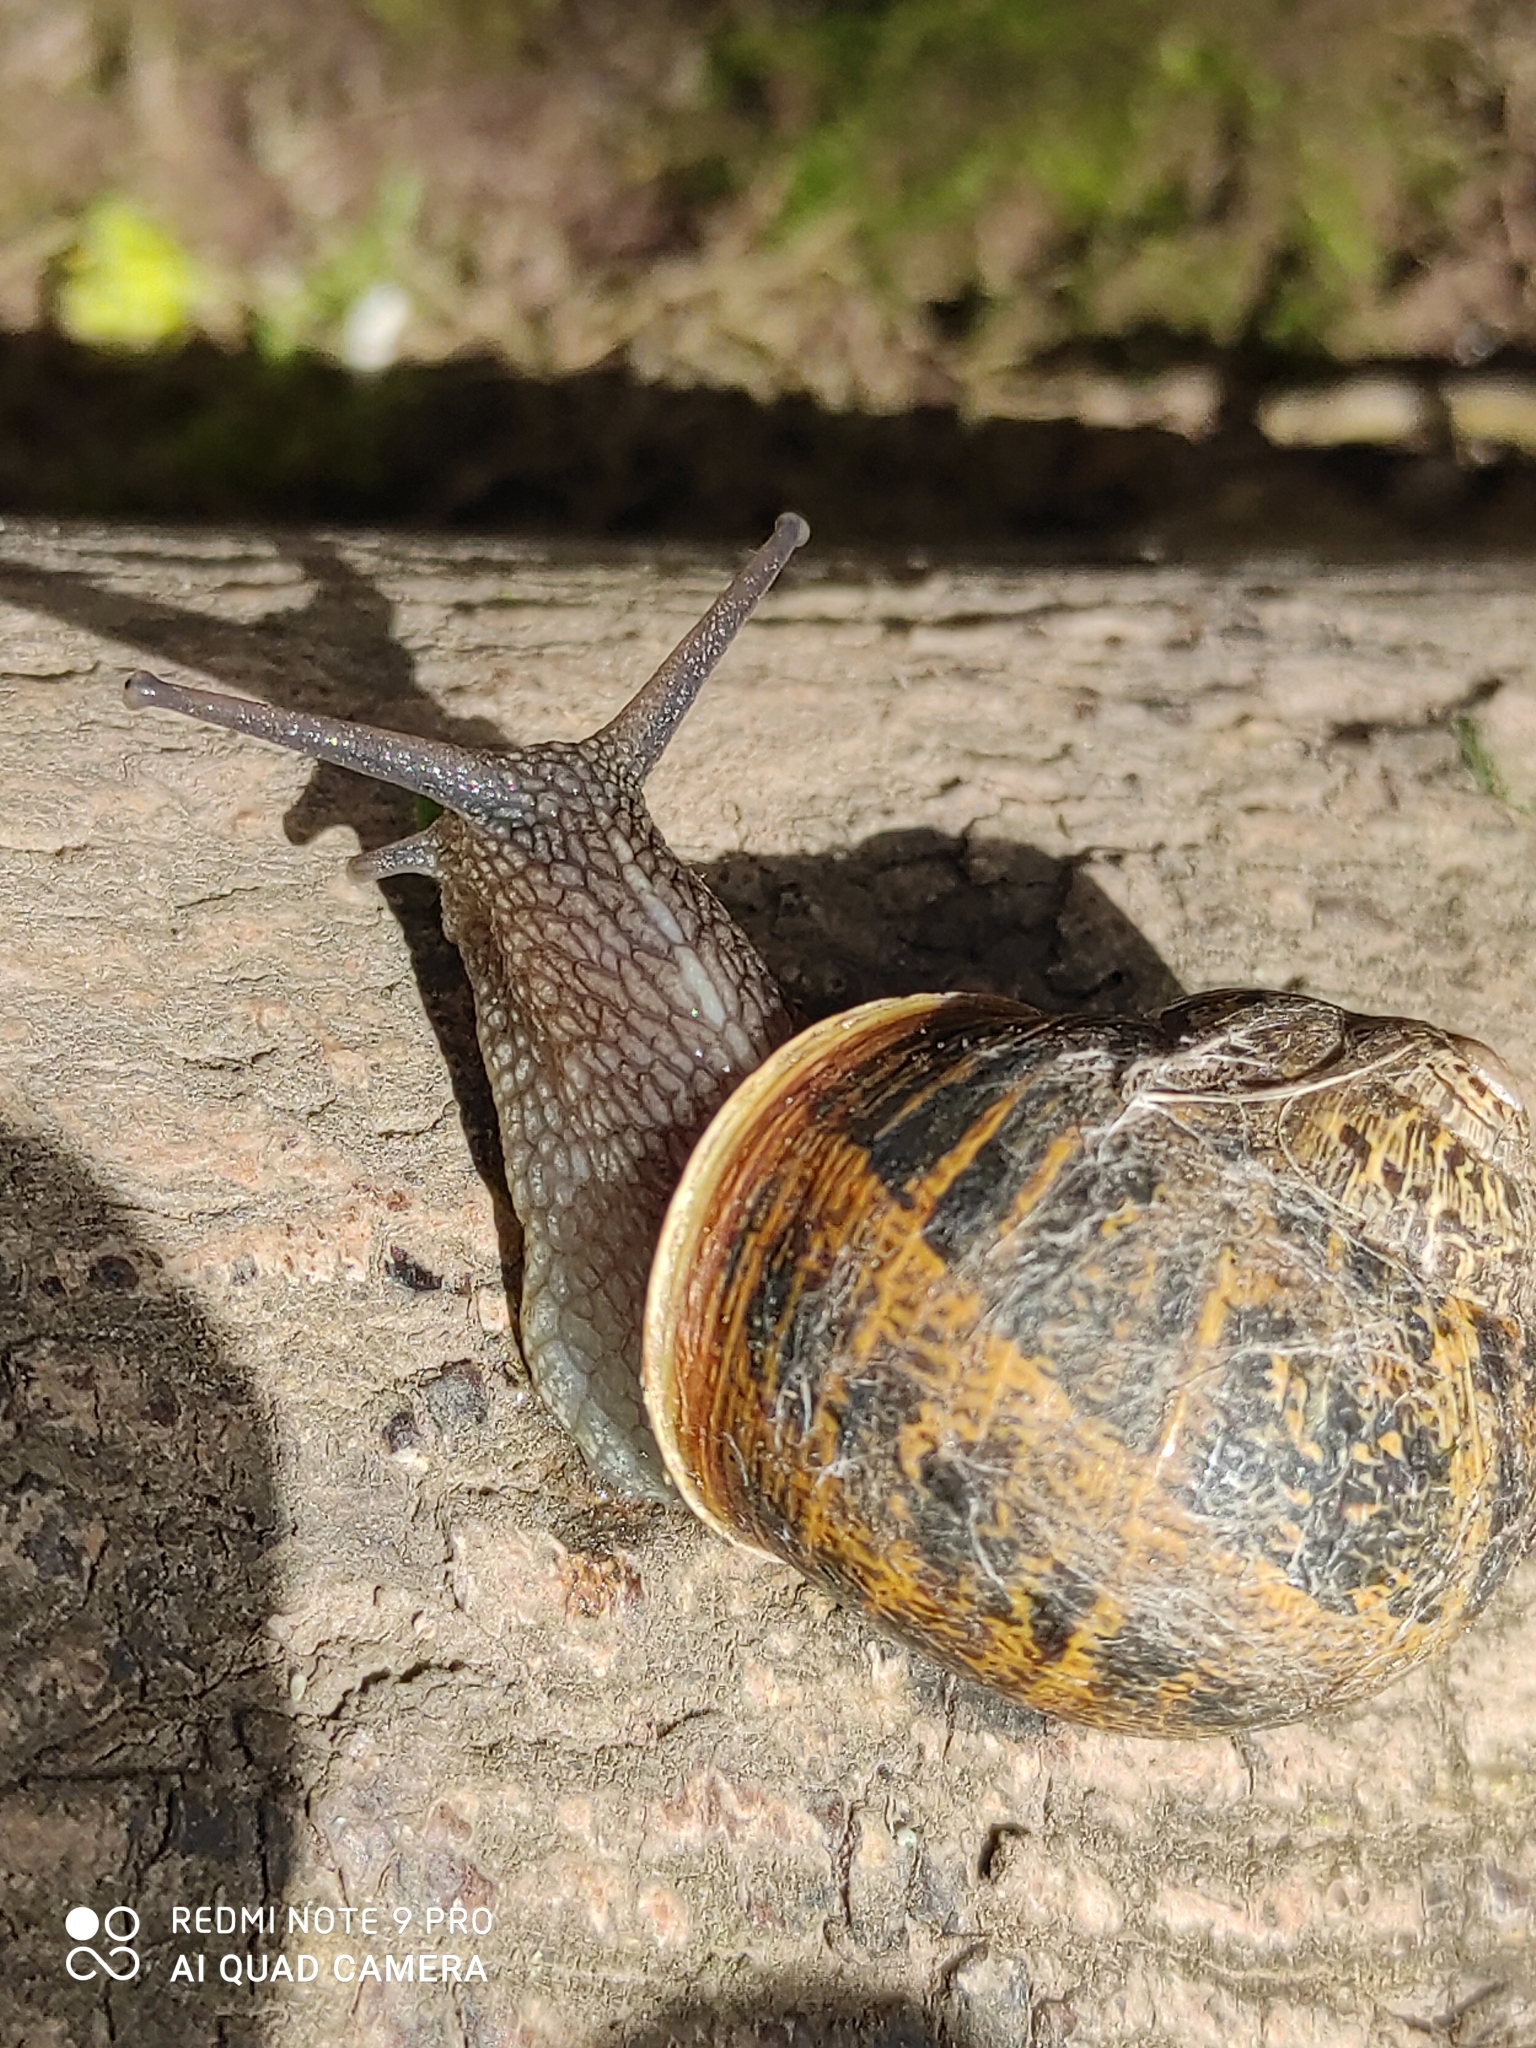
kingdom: Animalia
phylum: Mollusca
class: Gastropoda
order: Stylommatophora
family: Helicidae
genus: Cornu
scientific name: Cornu aspersum
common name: Brown garden snail
